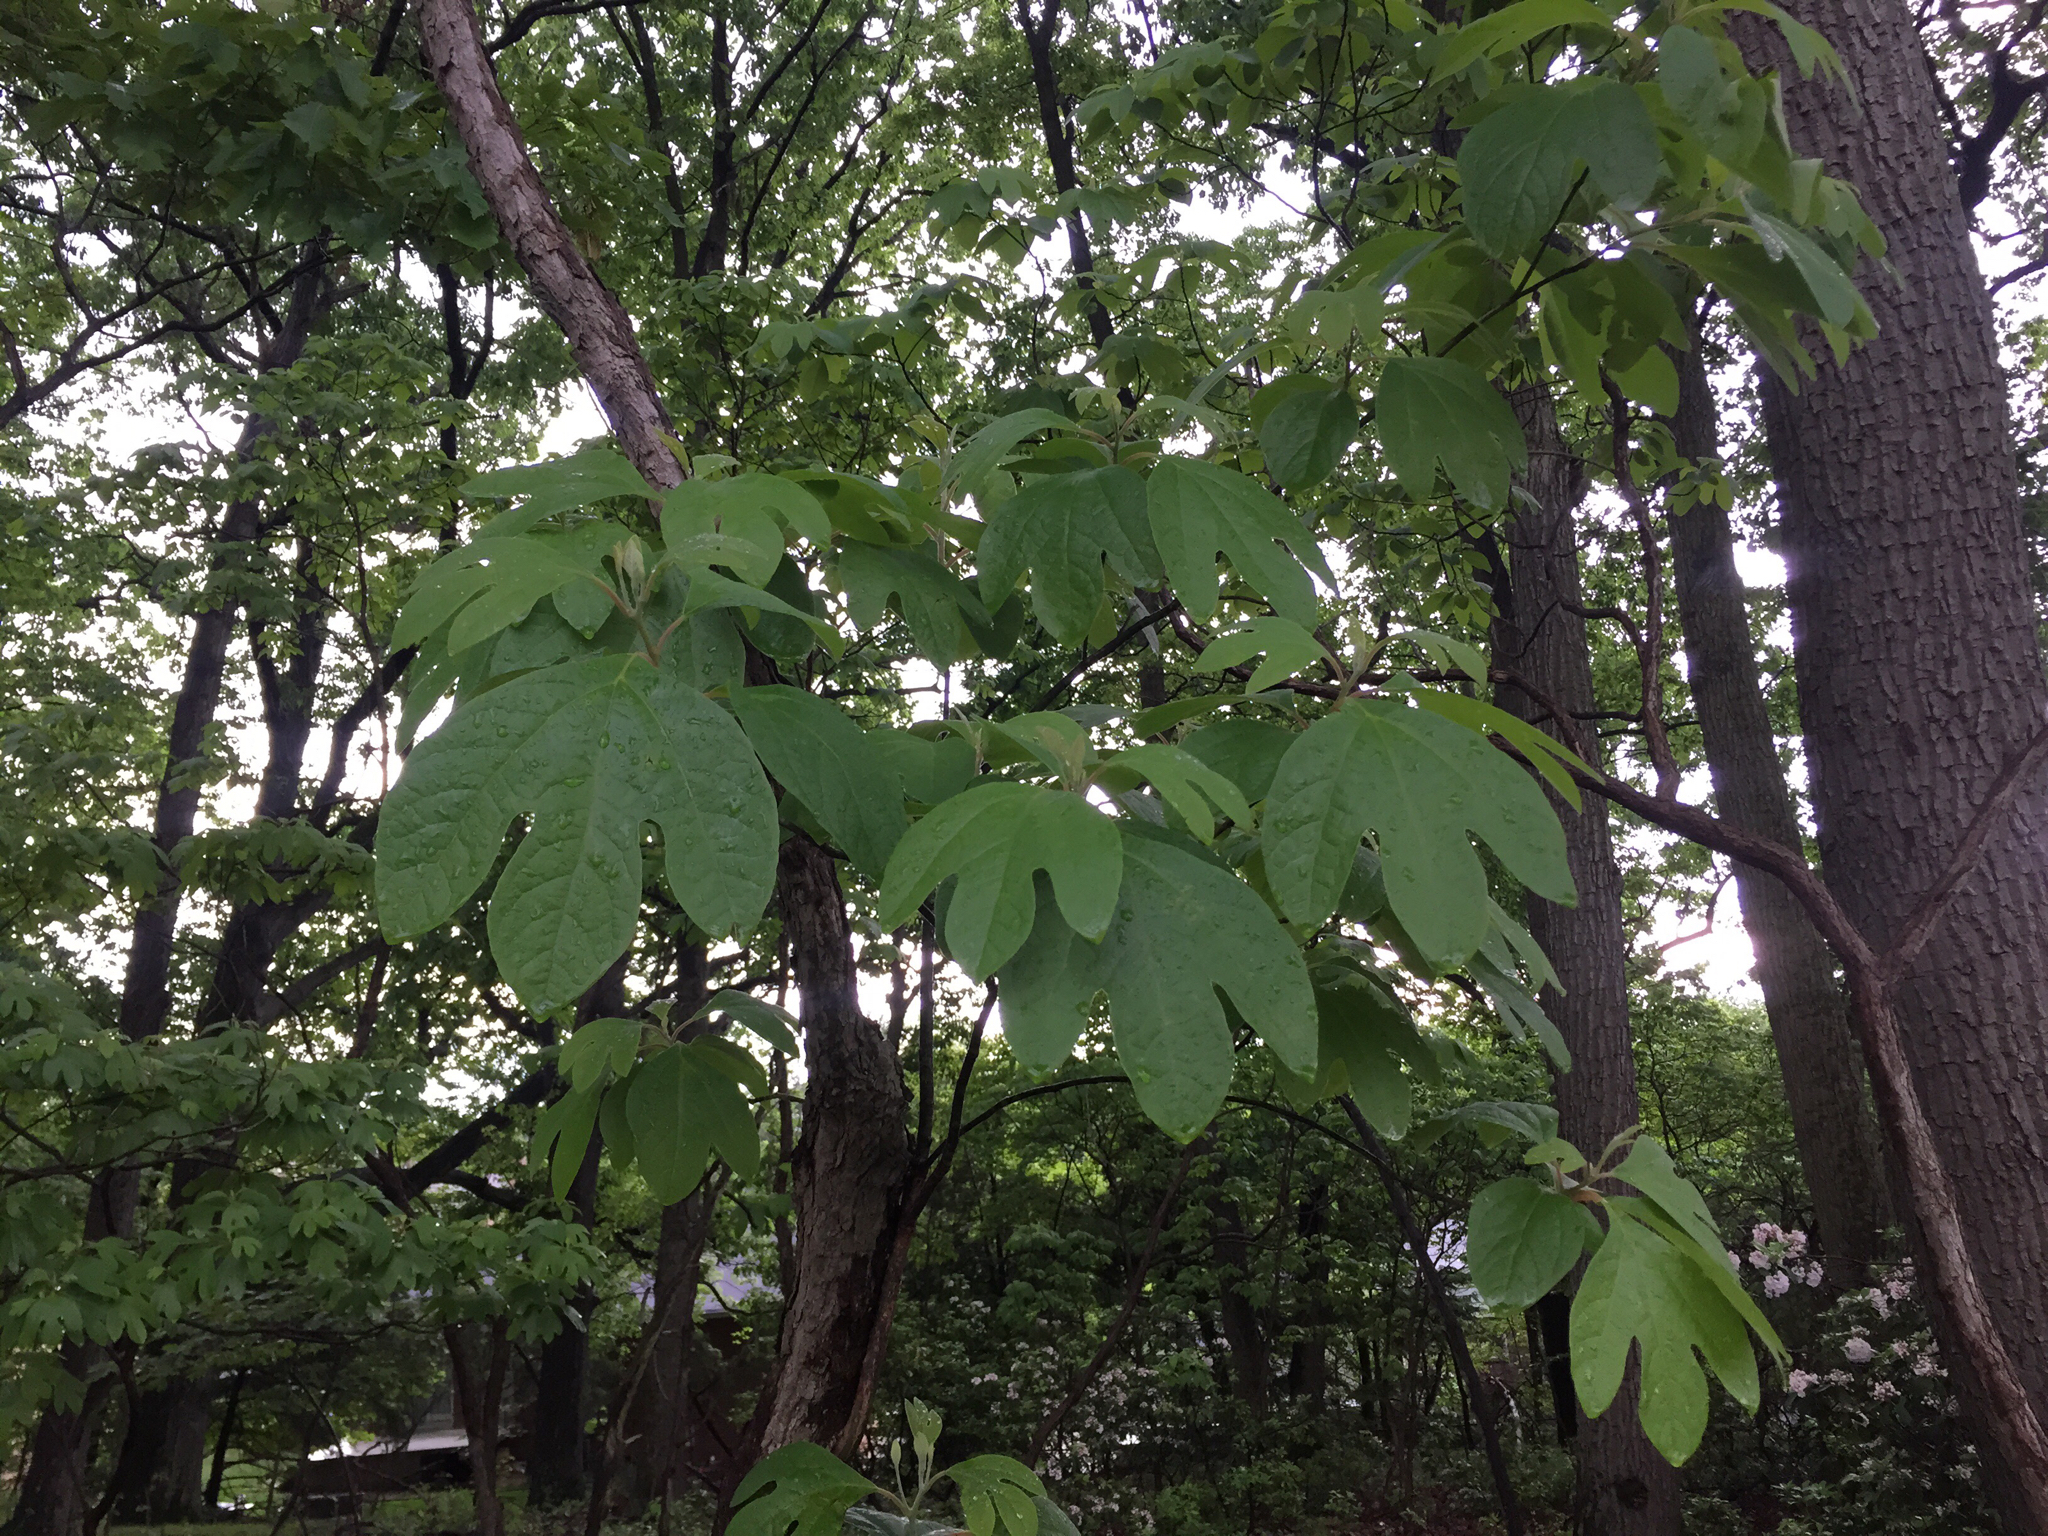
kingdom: Plantae
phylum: Tracheophyta
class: Magnoliopsida
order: Laurales
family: Lauraceae
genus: Sassafras
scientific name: Sassafras albidum
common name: Sassafras
